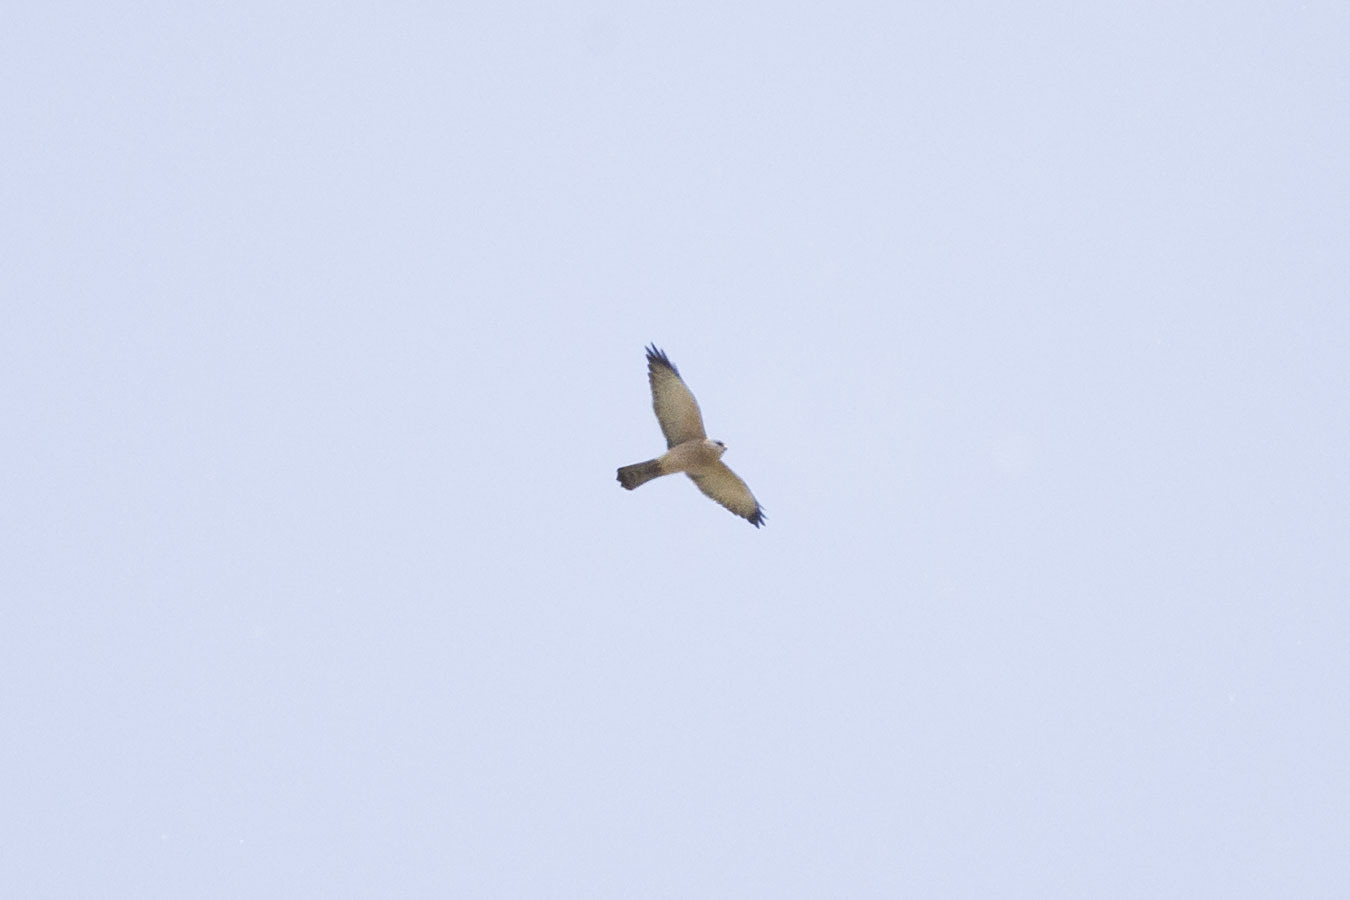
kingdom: Animalia
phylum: Chordata
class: Aves
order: Accipitriformes
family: Accipitridae
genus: Accipiter
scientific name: Accipiter brevipes
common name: Levant sparrowhawk
